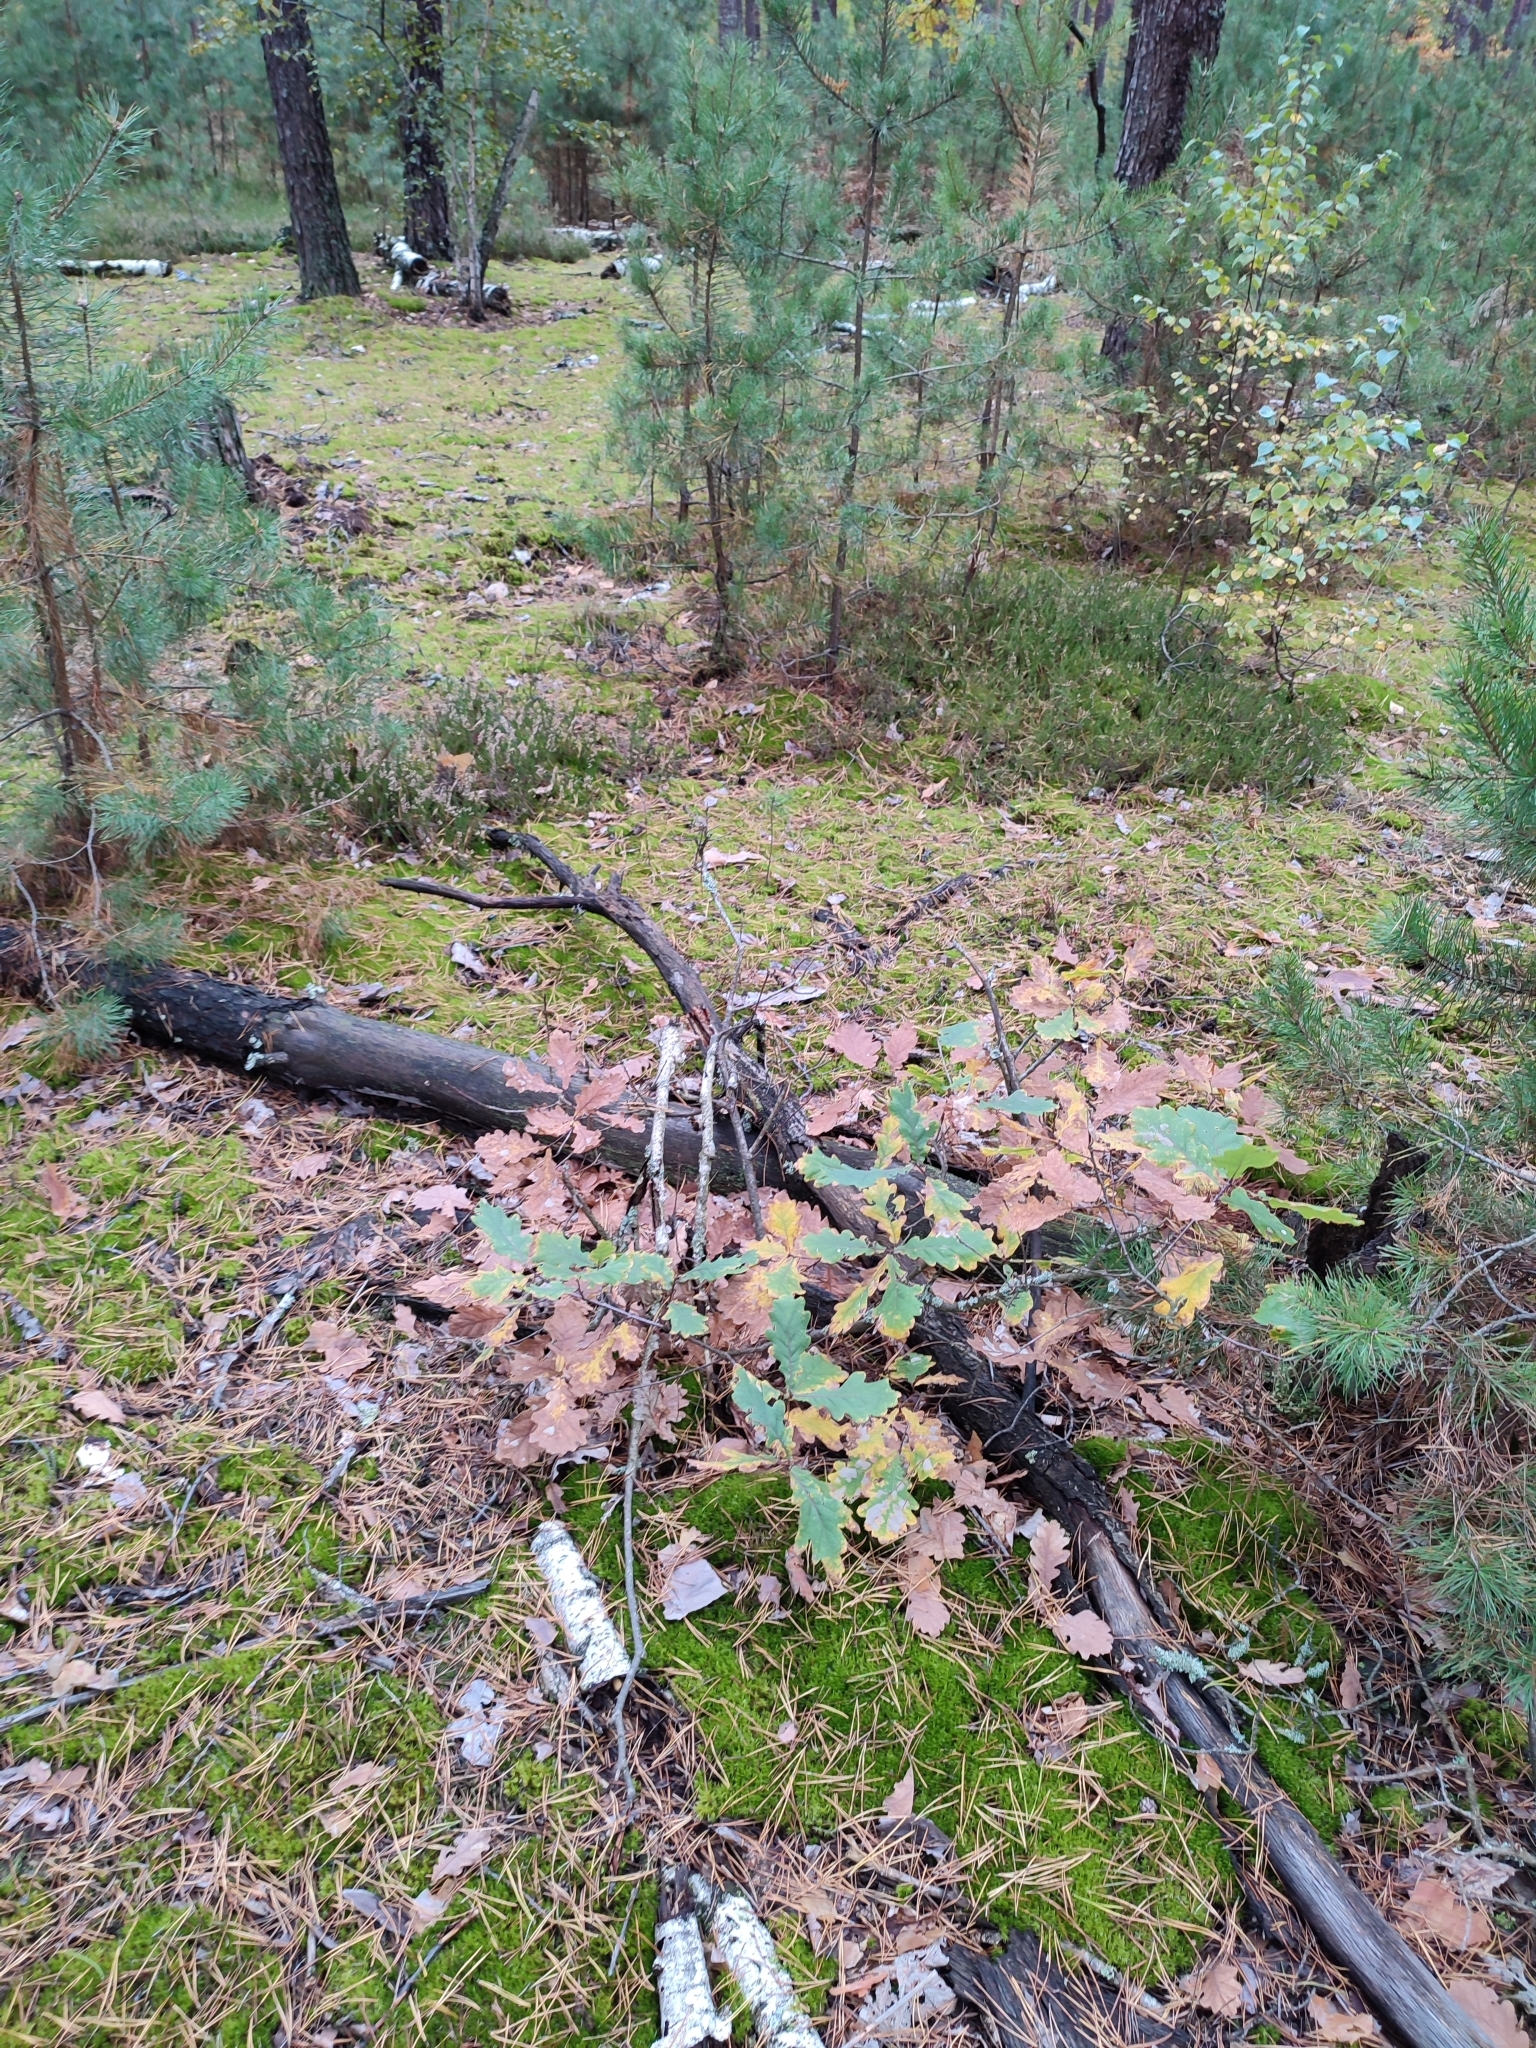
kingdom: Plantae
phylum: Tracheophyta
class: Magnoliopsida
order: Fagales
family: Fagaceae
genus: Quercus
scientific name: Quercus robur
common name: Pedunculate oak
